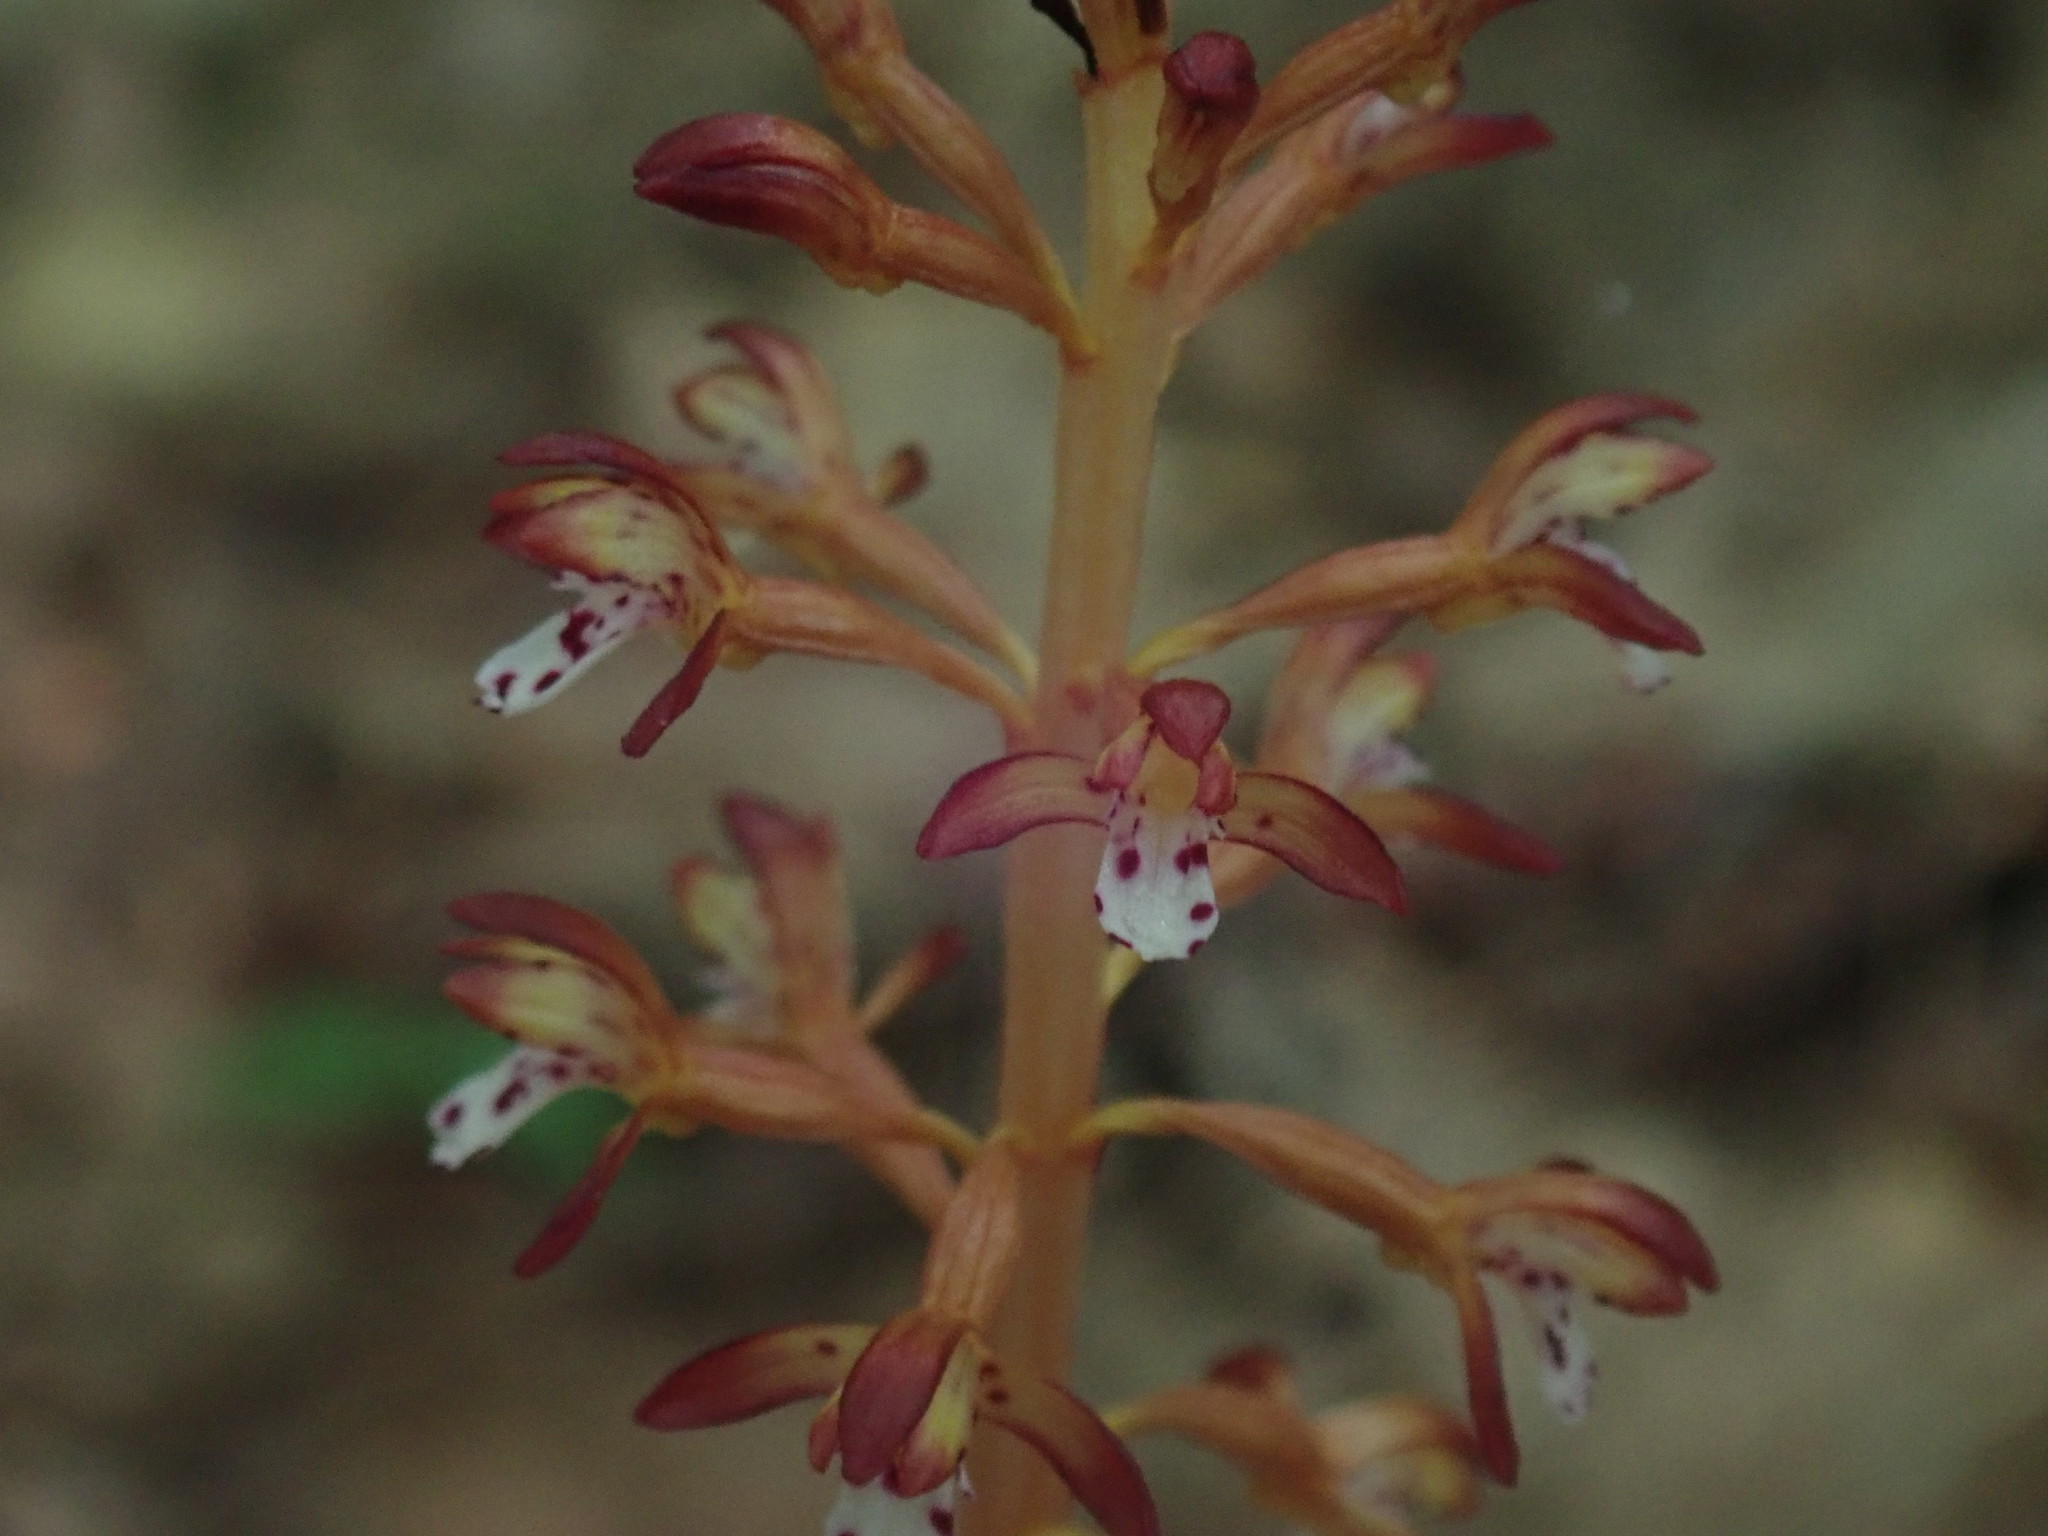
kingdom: Plantae
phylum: Tracheophyta
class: Liliopsida
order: Asparagales
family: Orchidaceae
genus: Corallorhiza
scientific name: Corallorhiza maculata
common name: Spotted coralroot
